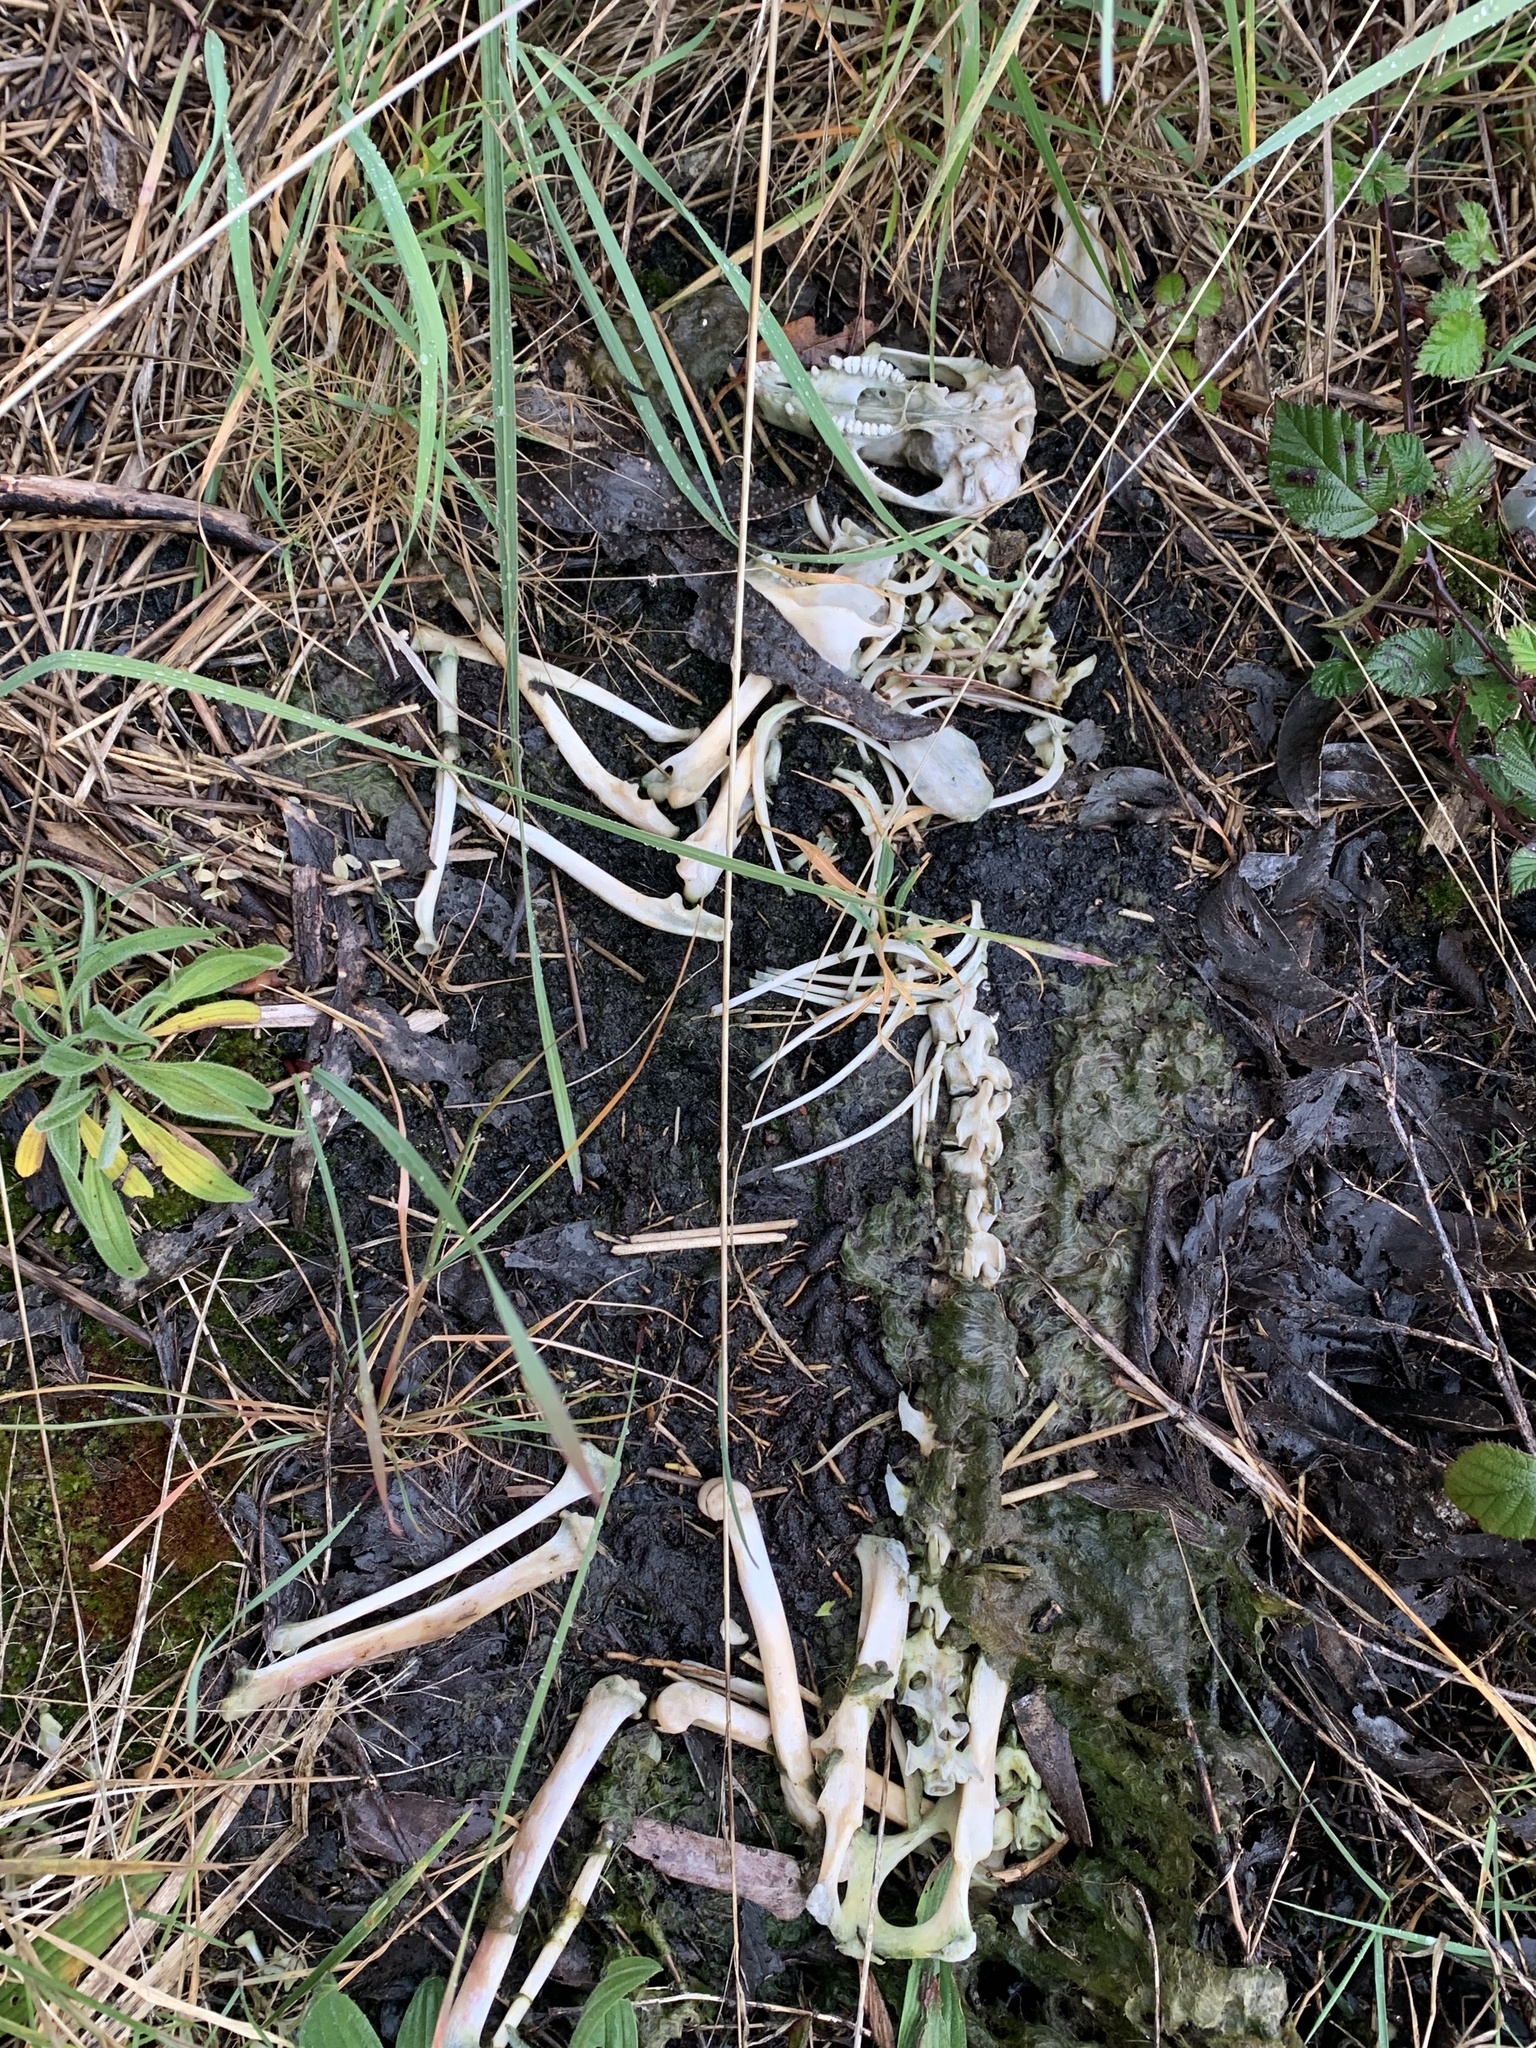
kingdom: Animalia
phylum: Chordata
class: Mammalia
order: Diprotodontia
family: Phalangeridae
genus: Trichosurus
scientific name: Trichosurus vulpecula
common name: Common brushtail
